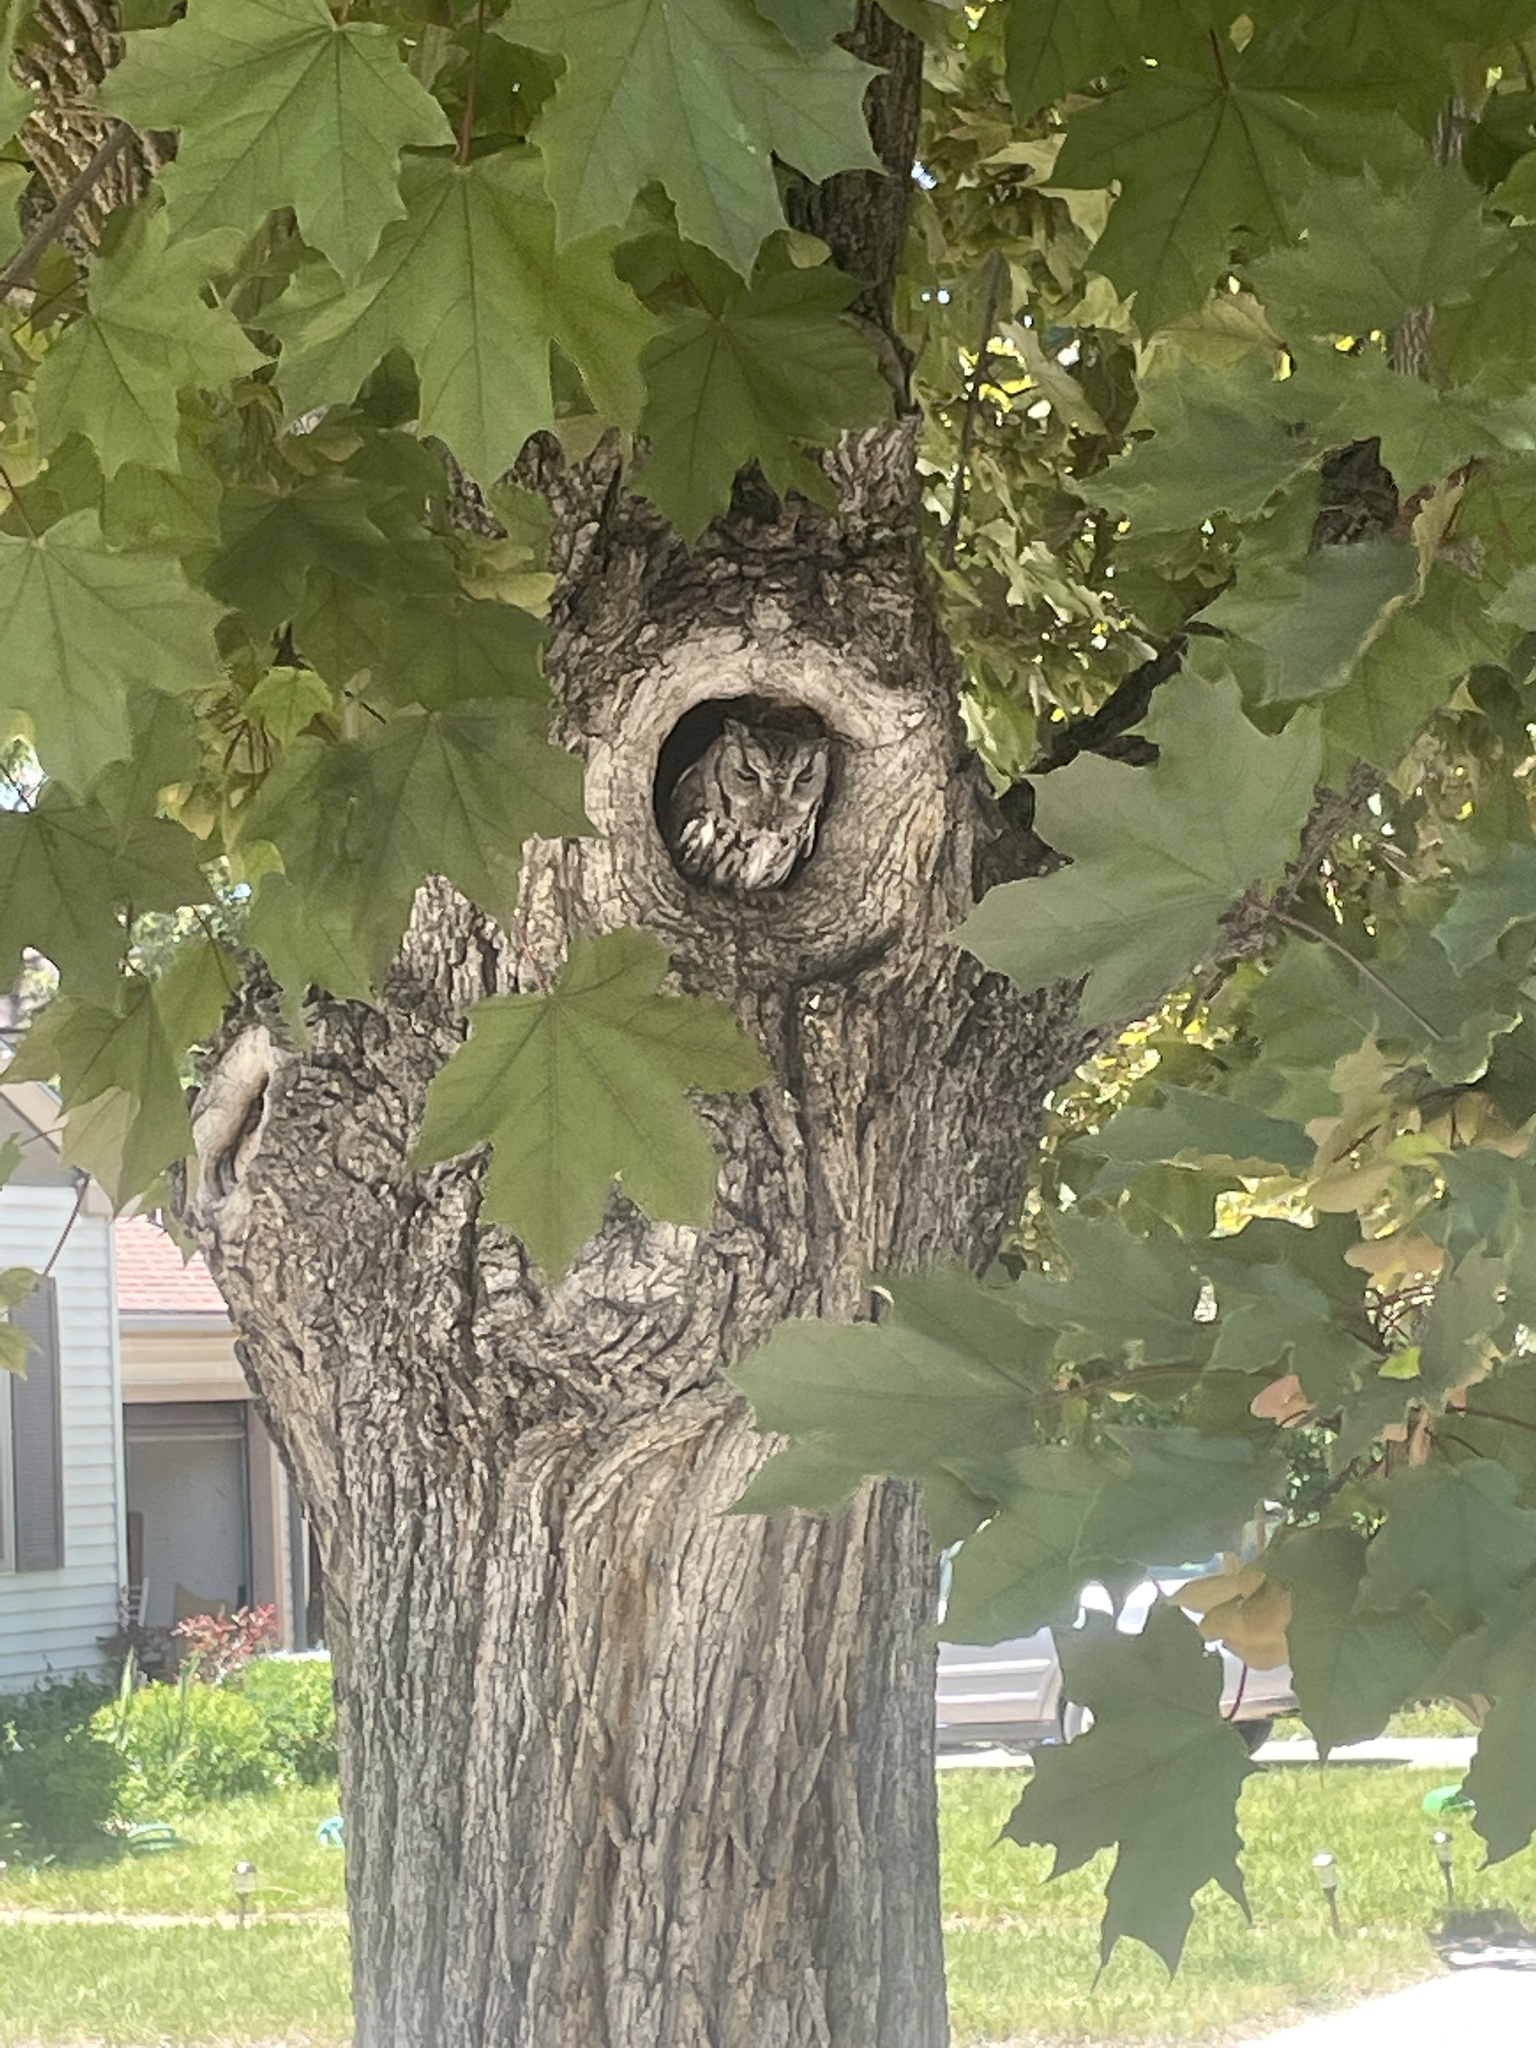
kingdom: Animalia
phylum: Chordata
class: Aves
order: Strigiformes
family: Strigidae
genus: Megascops
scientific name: Megascops kennicottii
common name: Western screech-owl
